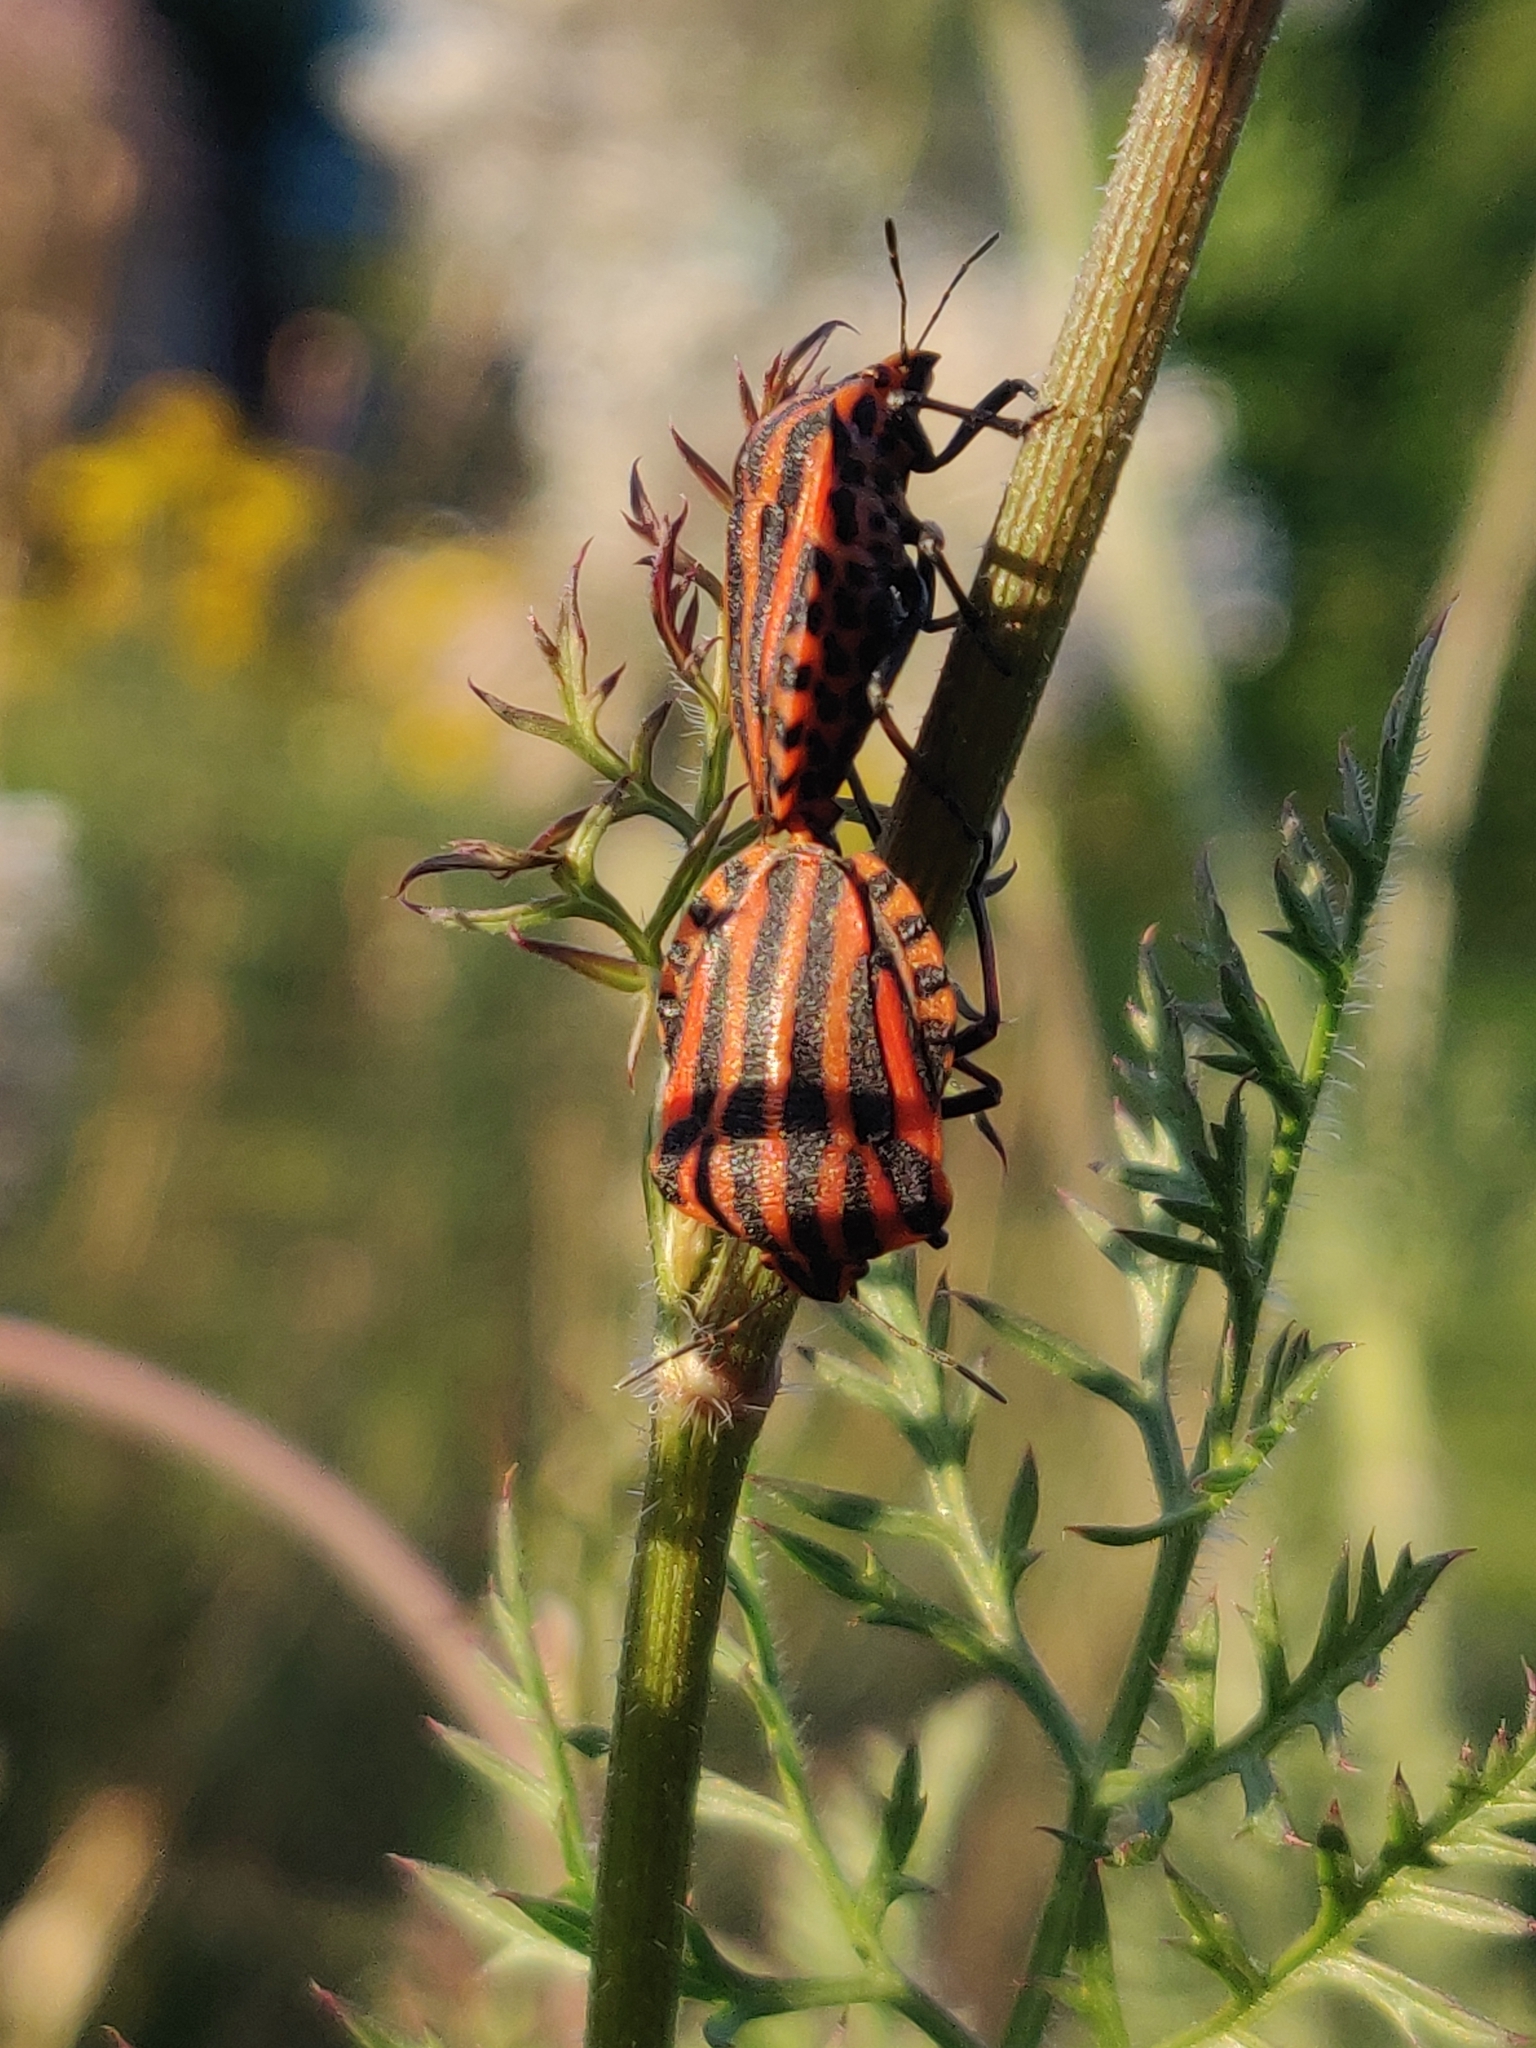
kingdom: Animalia
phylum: Arthropoda
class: Insecta
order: Hemiptera
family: Pentatomidae
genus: Graphosoma
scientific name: Graphosoma italicum
